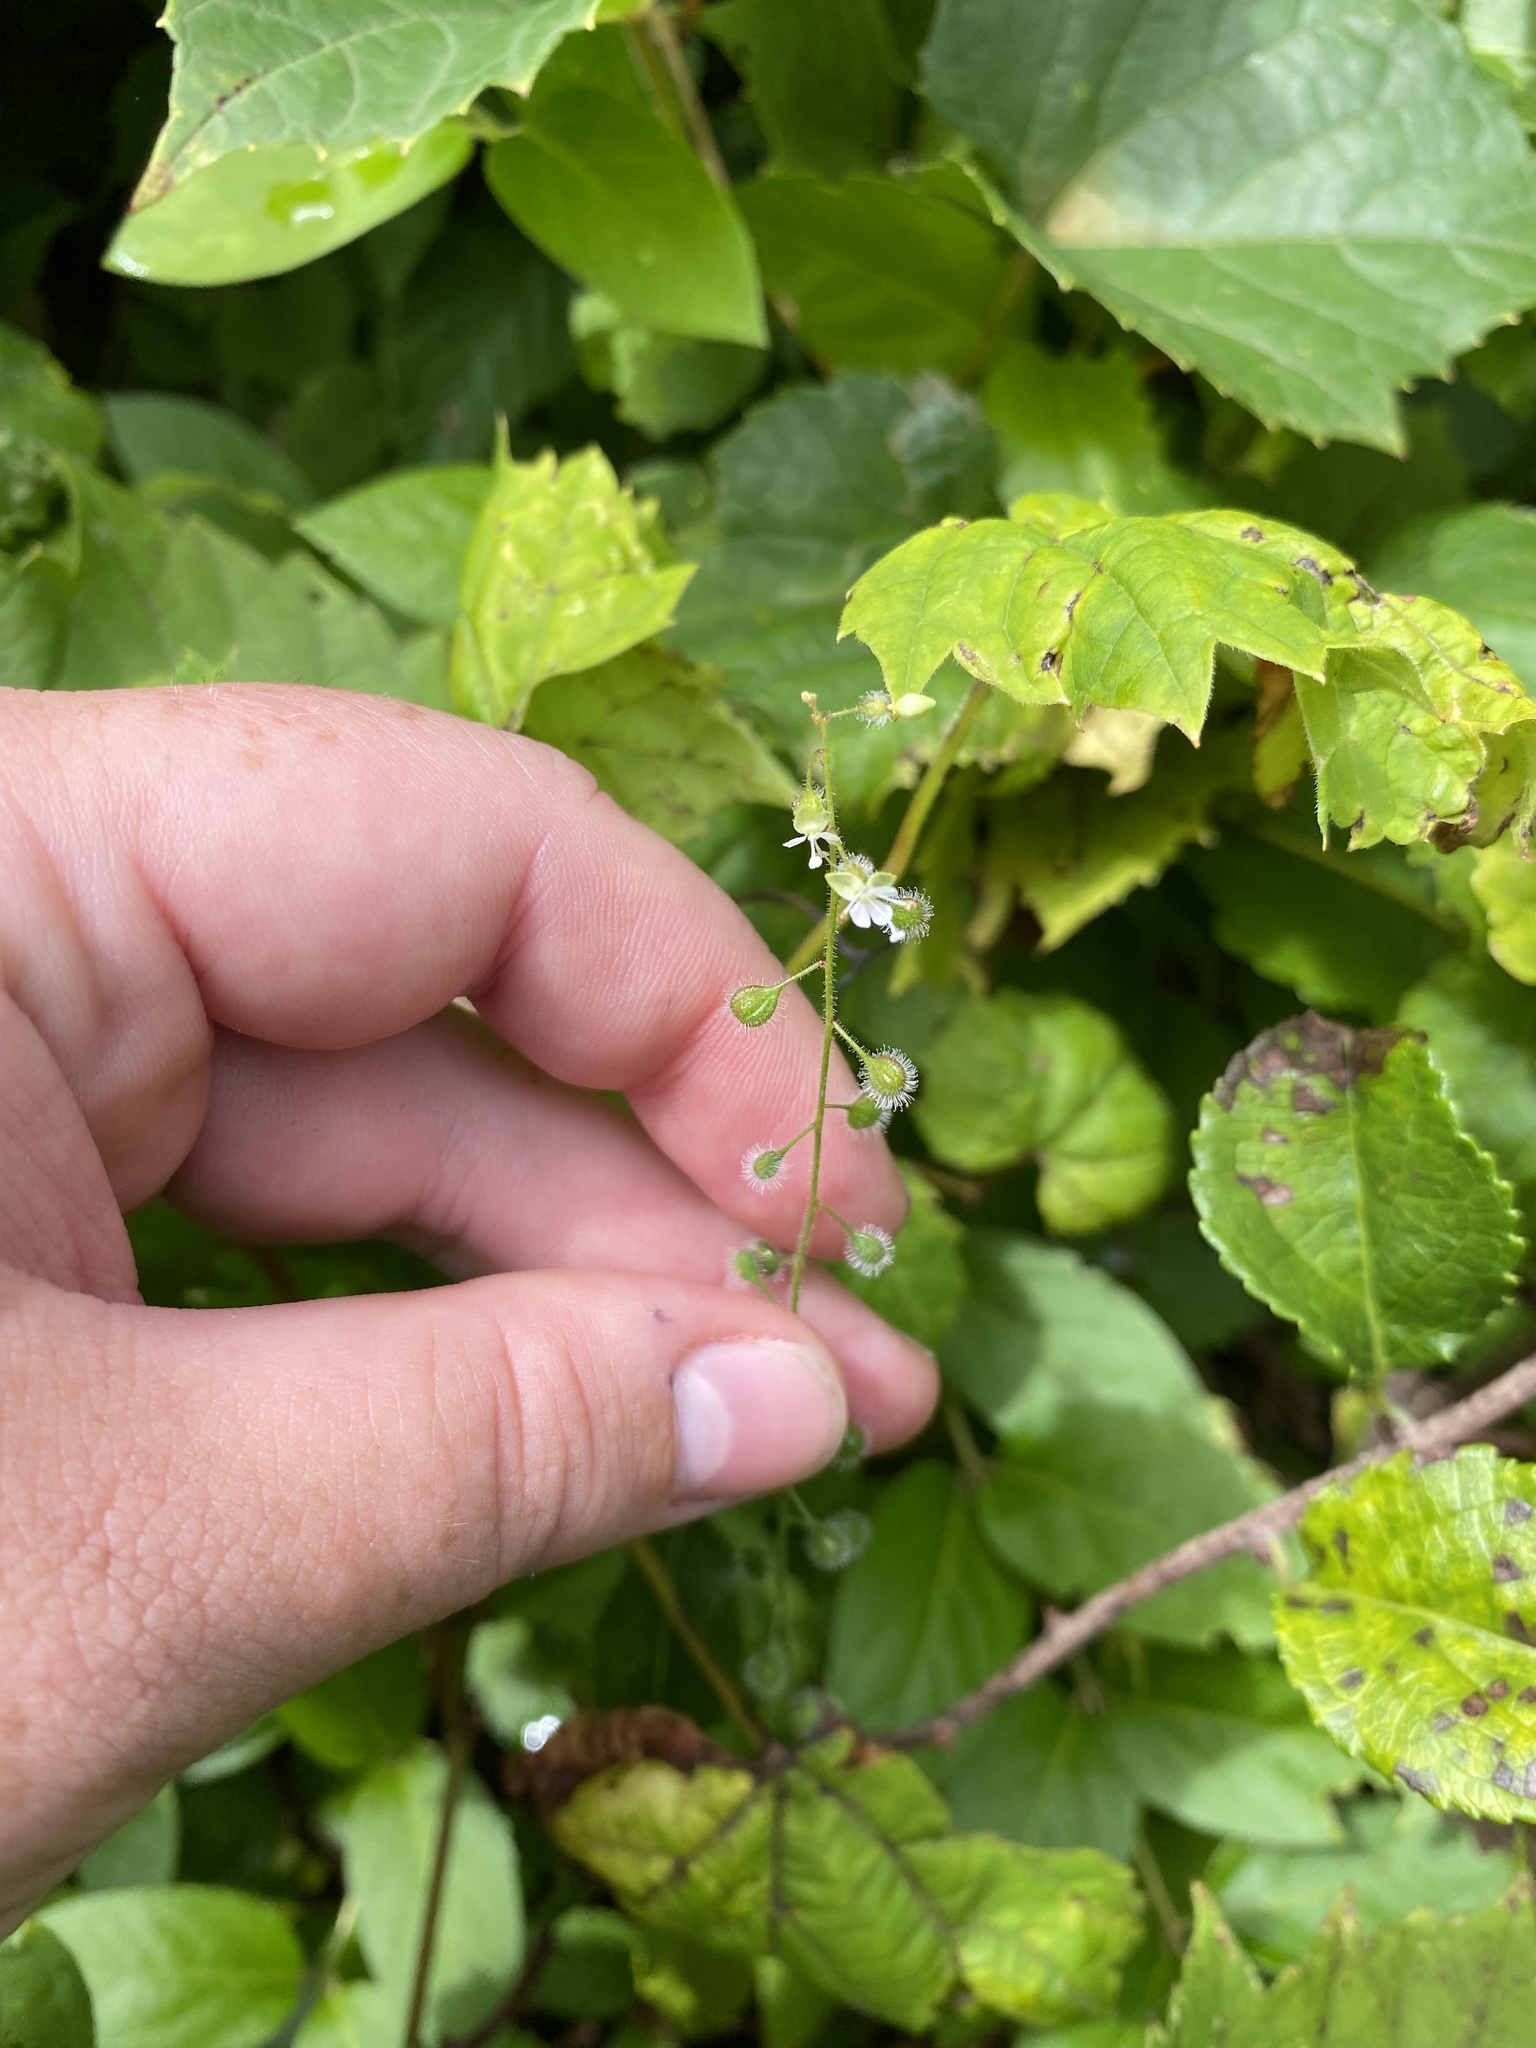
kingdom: Plantae
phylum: Tracheophyta
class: Magnoliopsida
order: Myrtales
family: Onagraceae
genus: Circaea
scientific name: Circaea canadensis
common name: Broad-leaved enchanter's nightshade
